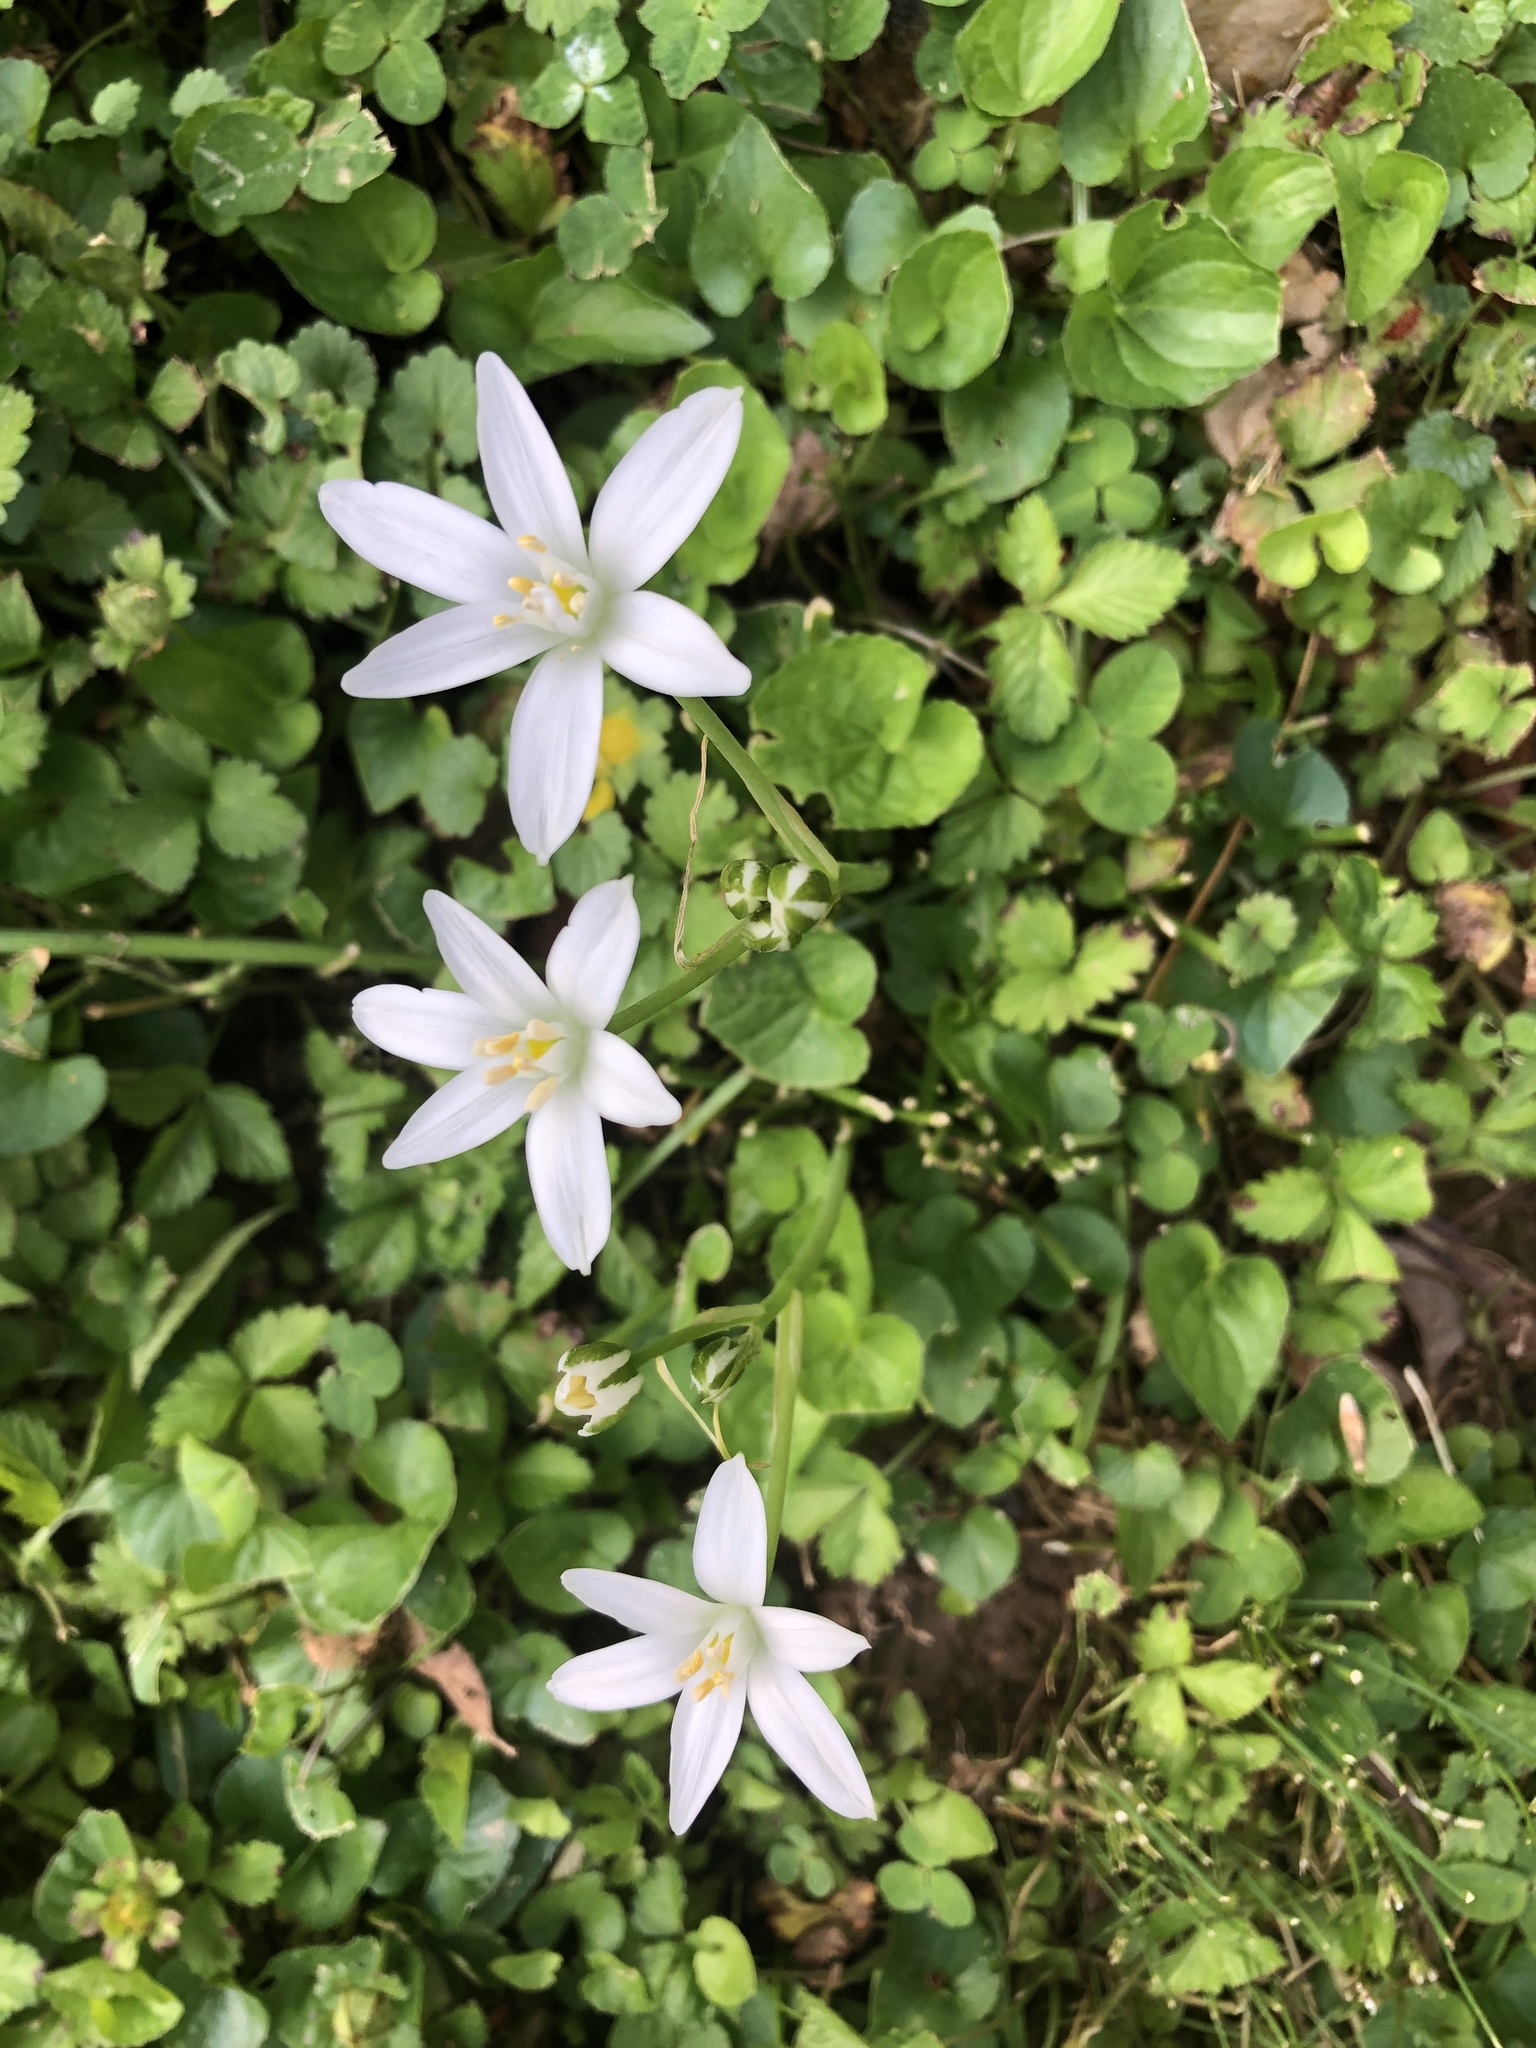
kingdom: Plantae
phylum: Tracheophyta
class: Liliopsida
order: Asparagales
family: Asparagaceae
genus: Ornithogalum
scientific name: Ornithogalum umbellatum
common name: Garden star-of-bethlehem
